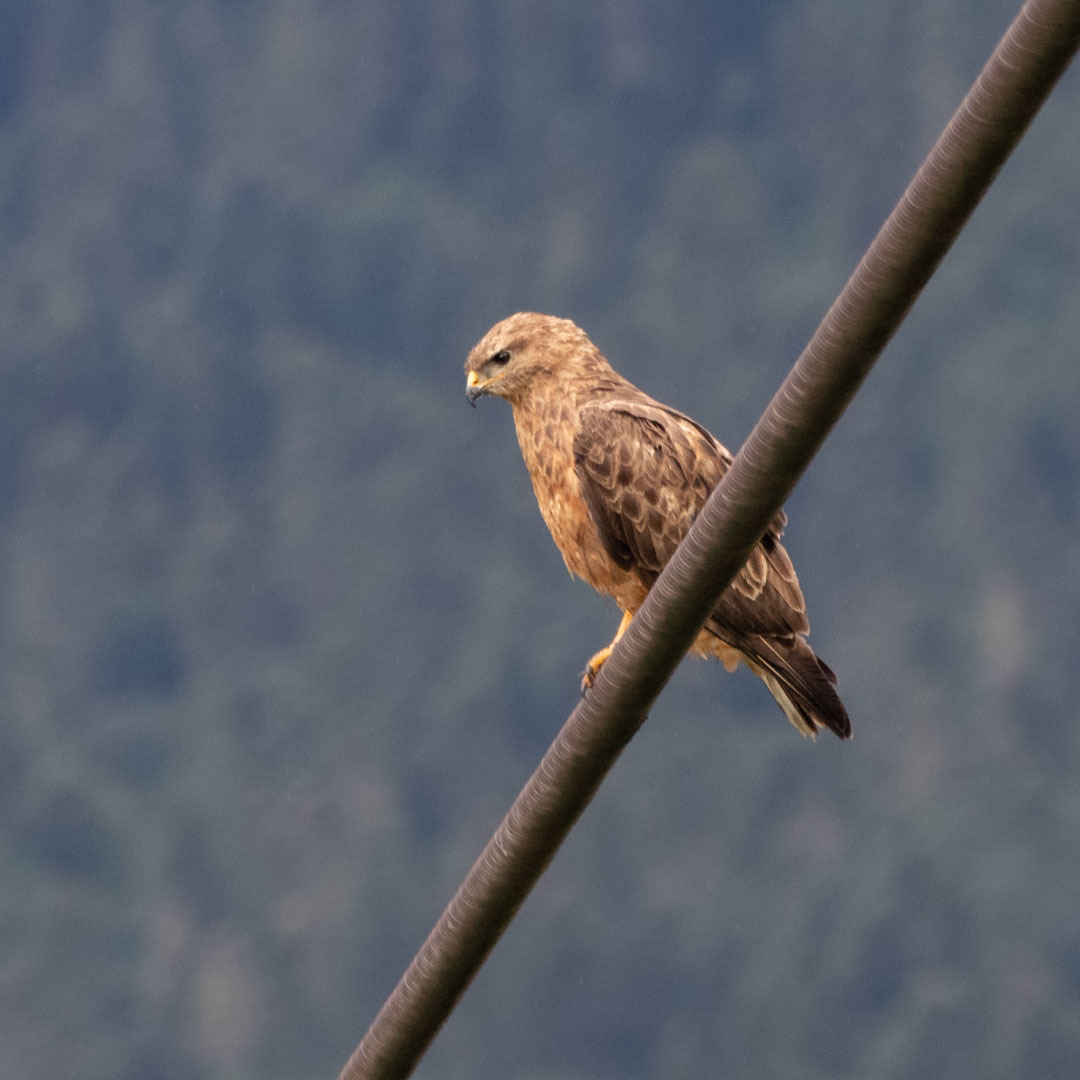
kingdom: Animalia
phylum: Chordata
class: Aves
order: Accipitriformes
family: Accipitridae
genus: Buteo
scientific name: Buteo buteo
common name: Common buzzard
